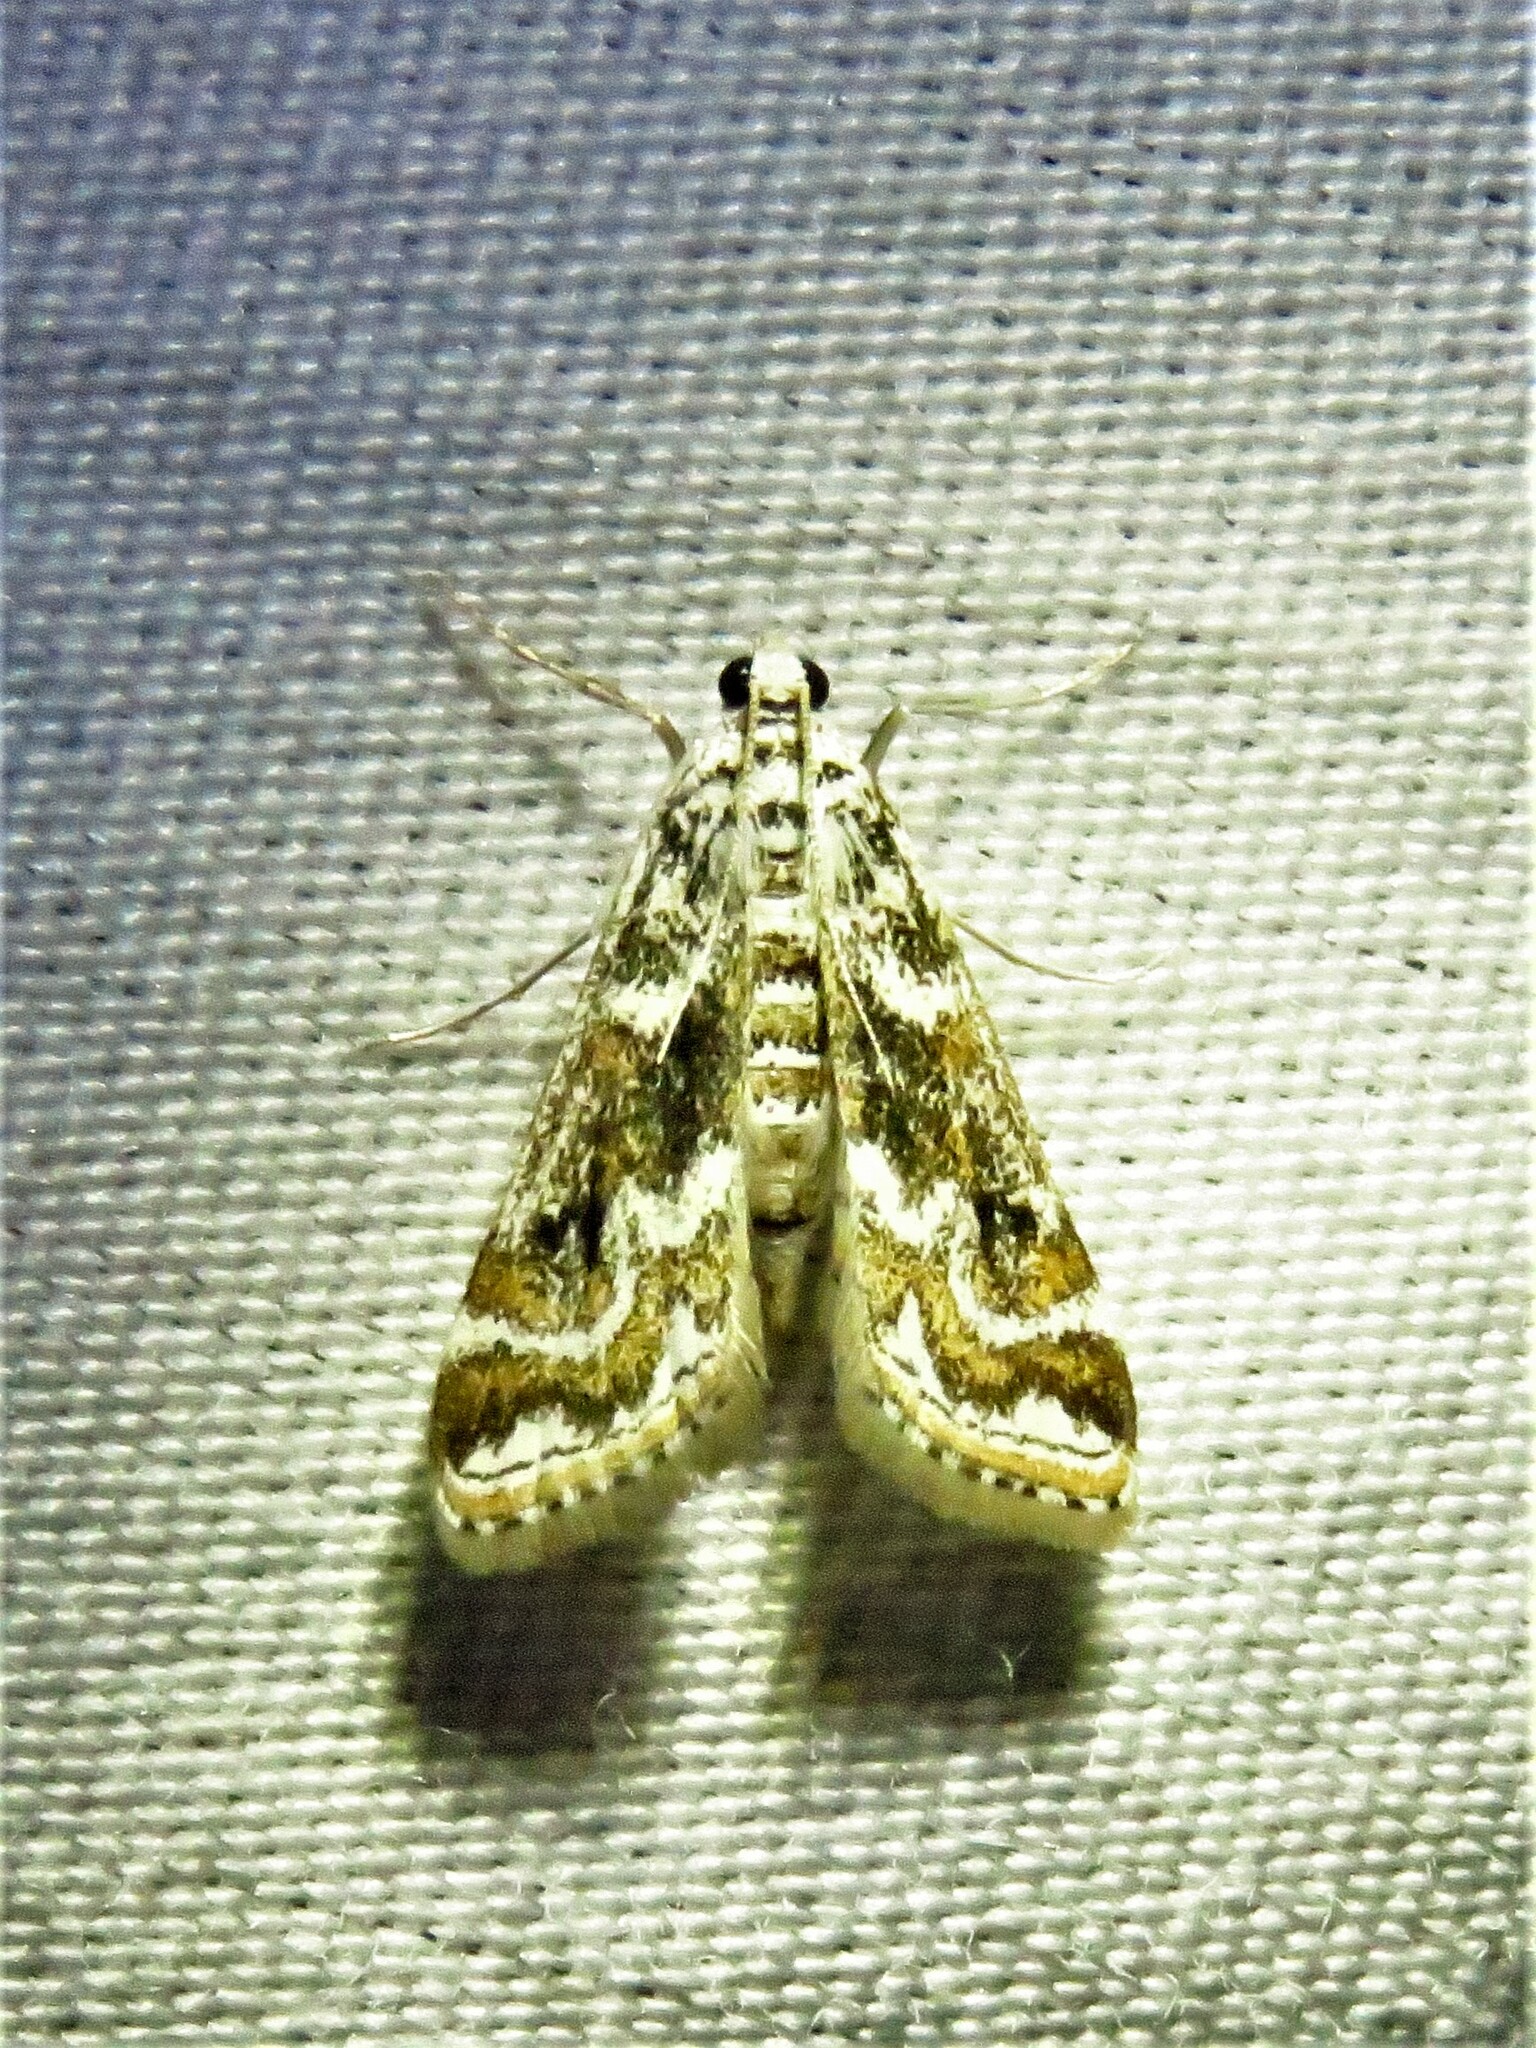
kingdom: Animalia
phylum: Arthropoda
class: Insecta
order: Lepidoptera
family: Crambidae
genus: Parapoynx
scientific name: Parapoynx diminutalis
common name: Hydrilla leafcutter
